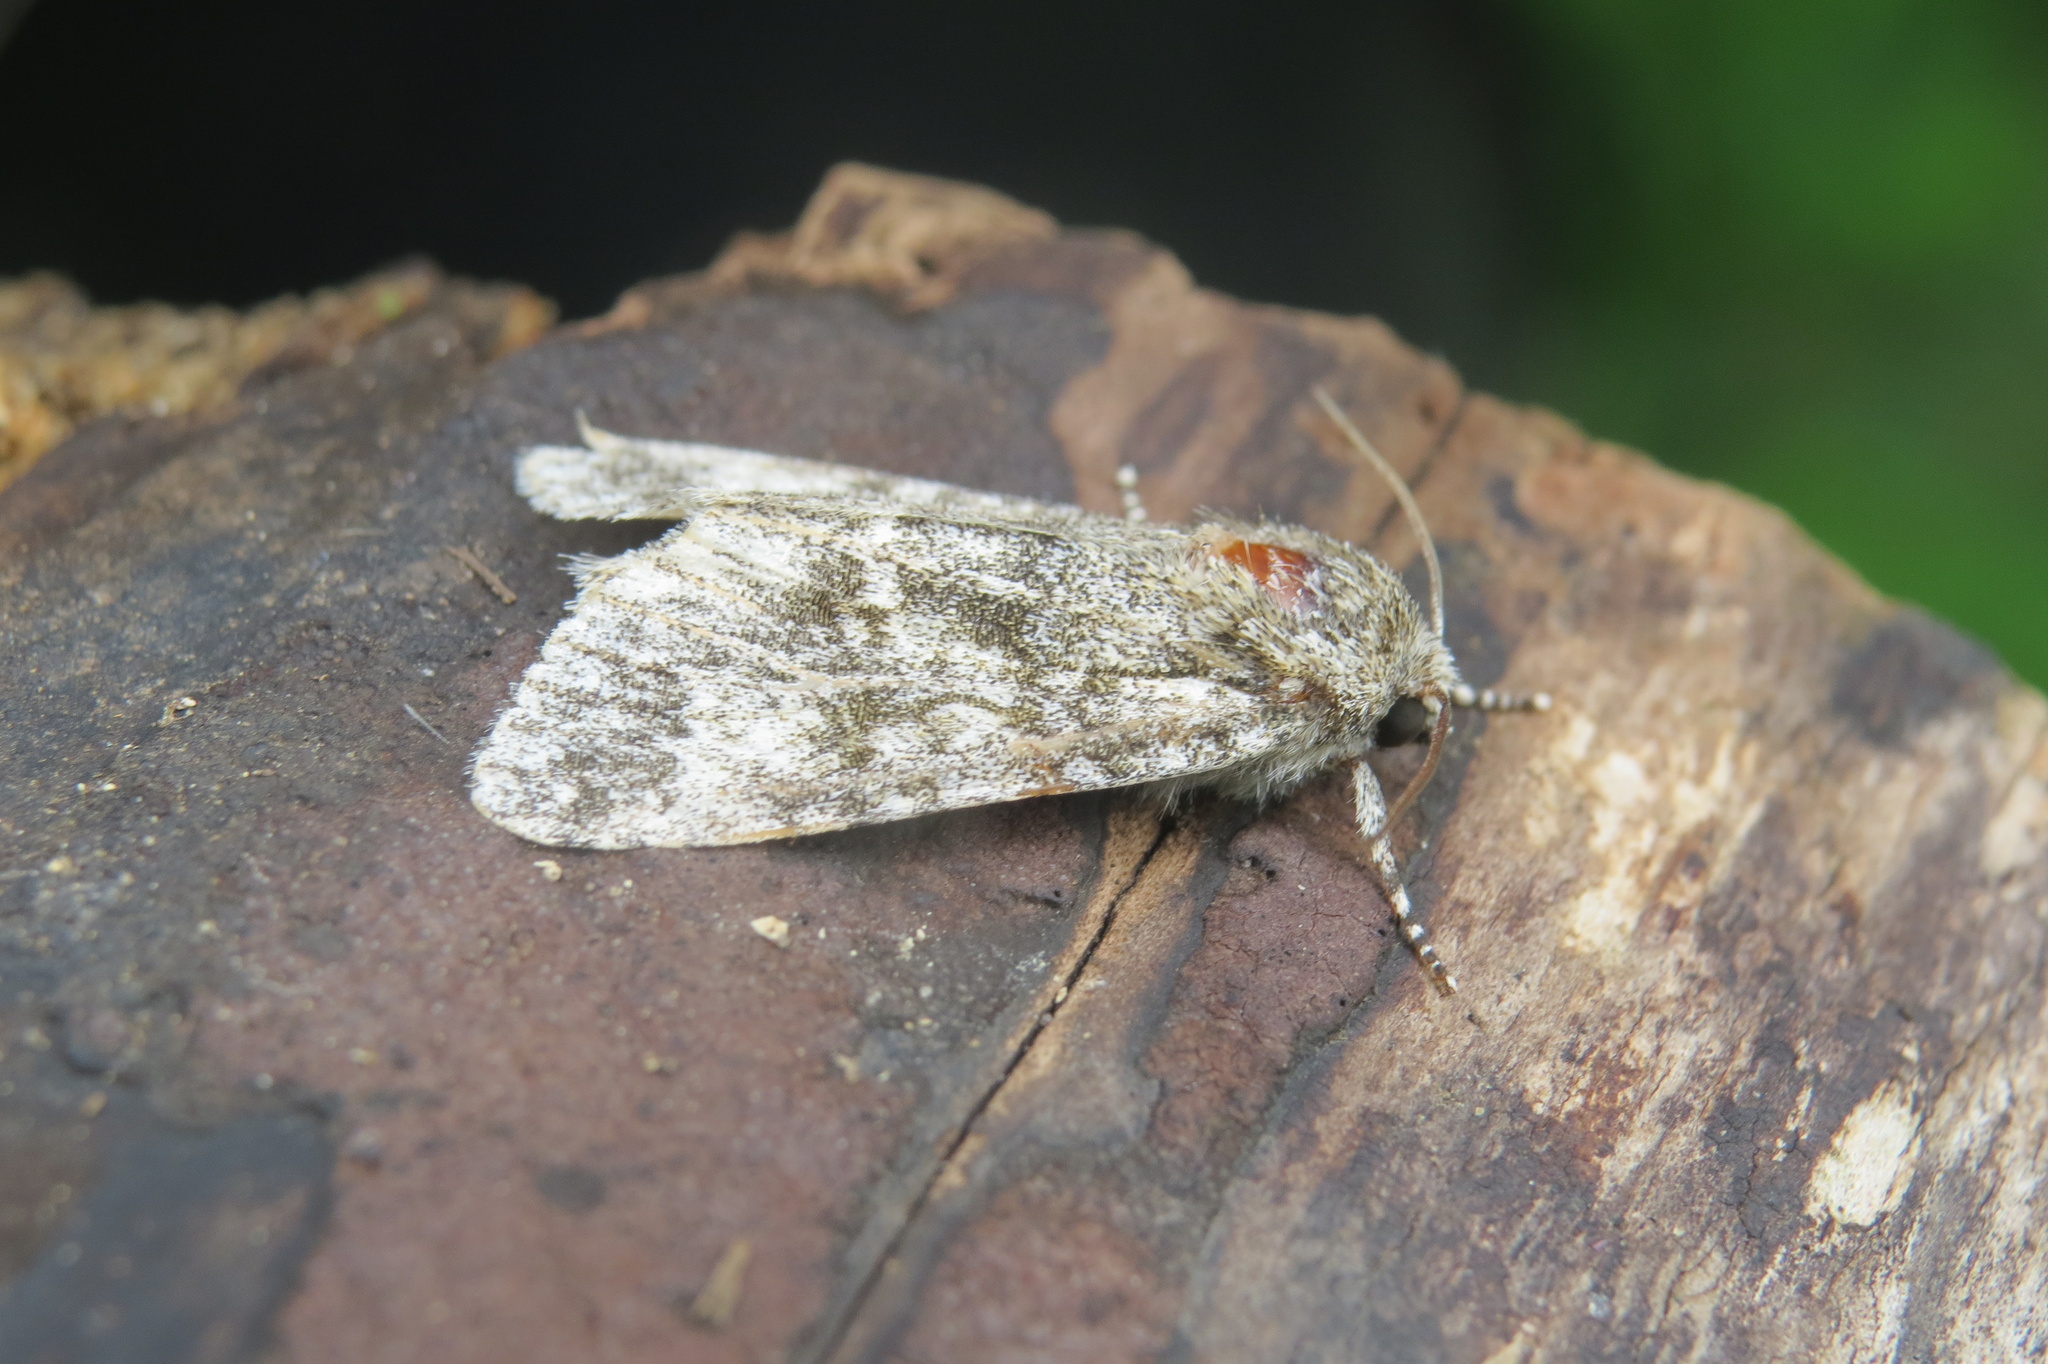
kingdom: Animalia
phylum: Arthropoda
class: Insecta
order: Lepidoptera
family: Noctuidae
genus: Acronicta
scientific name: Acronicta megacephala
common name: Poplar grey
